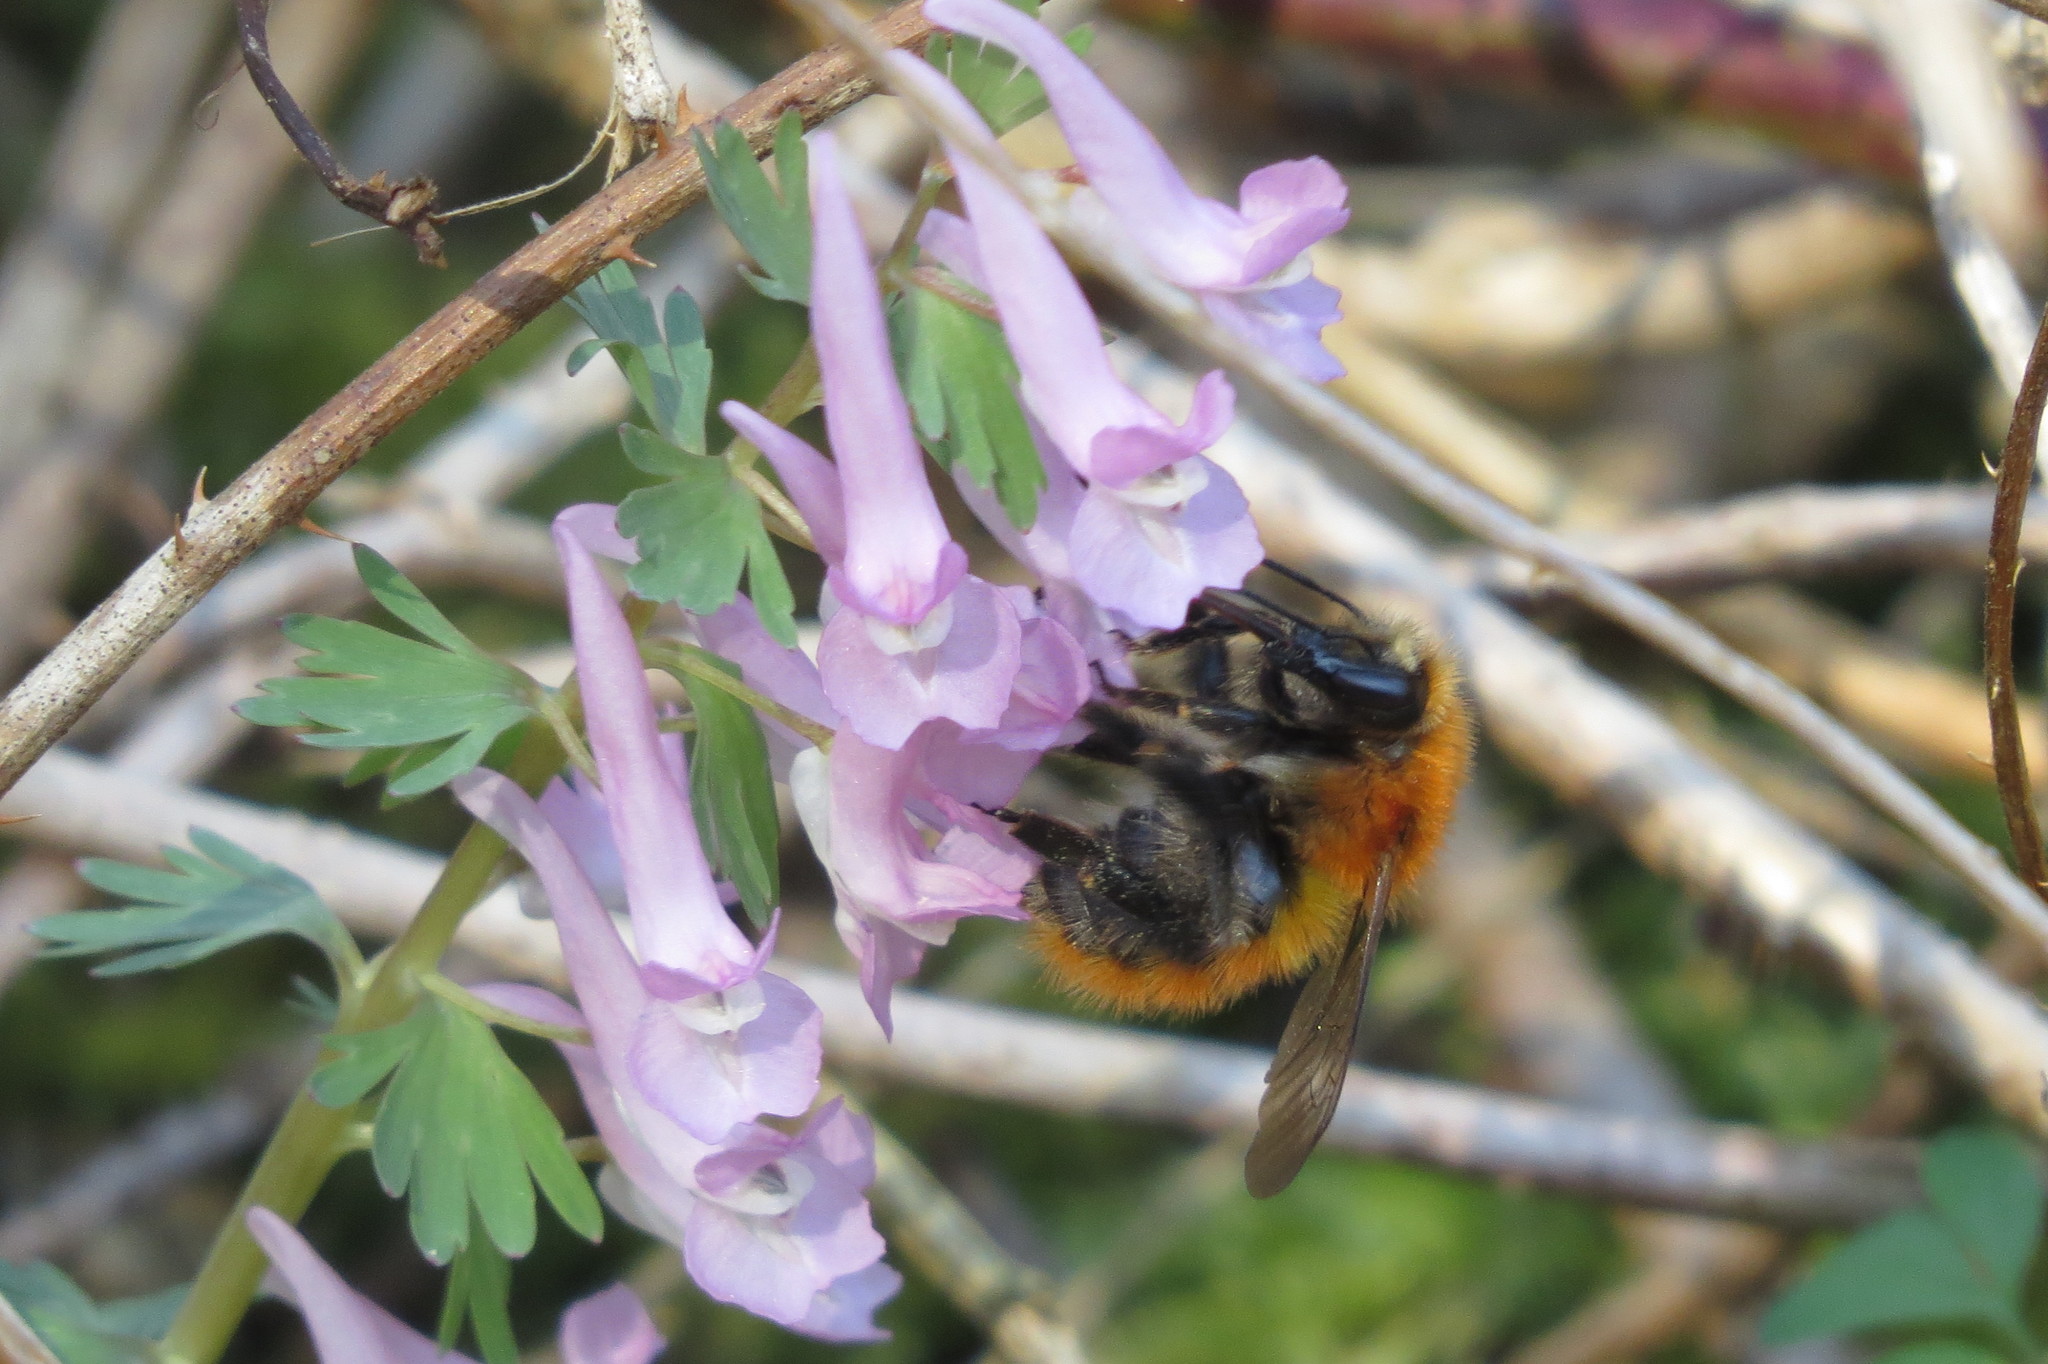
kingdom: Animalia
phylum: Arthropoda
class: Insecta
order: Hymenoptera
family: Apidae
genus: Bombus
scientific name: Bombus pascuorum
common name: Common carder bee
